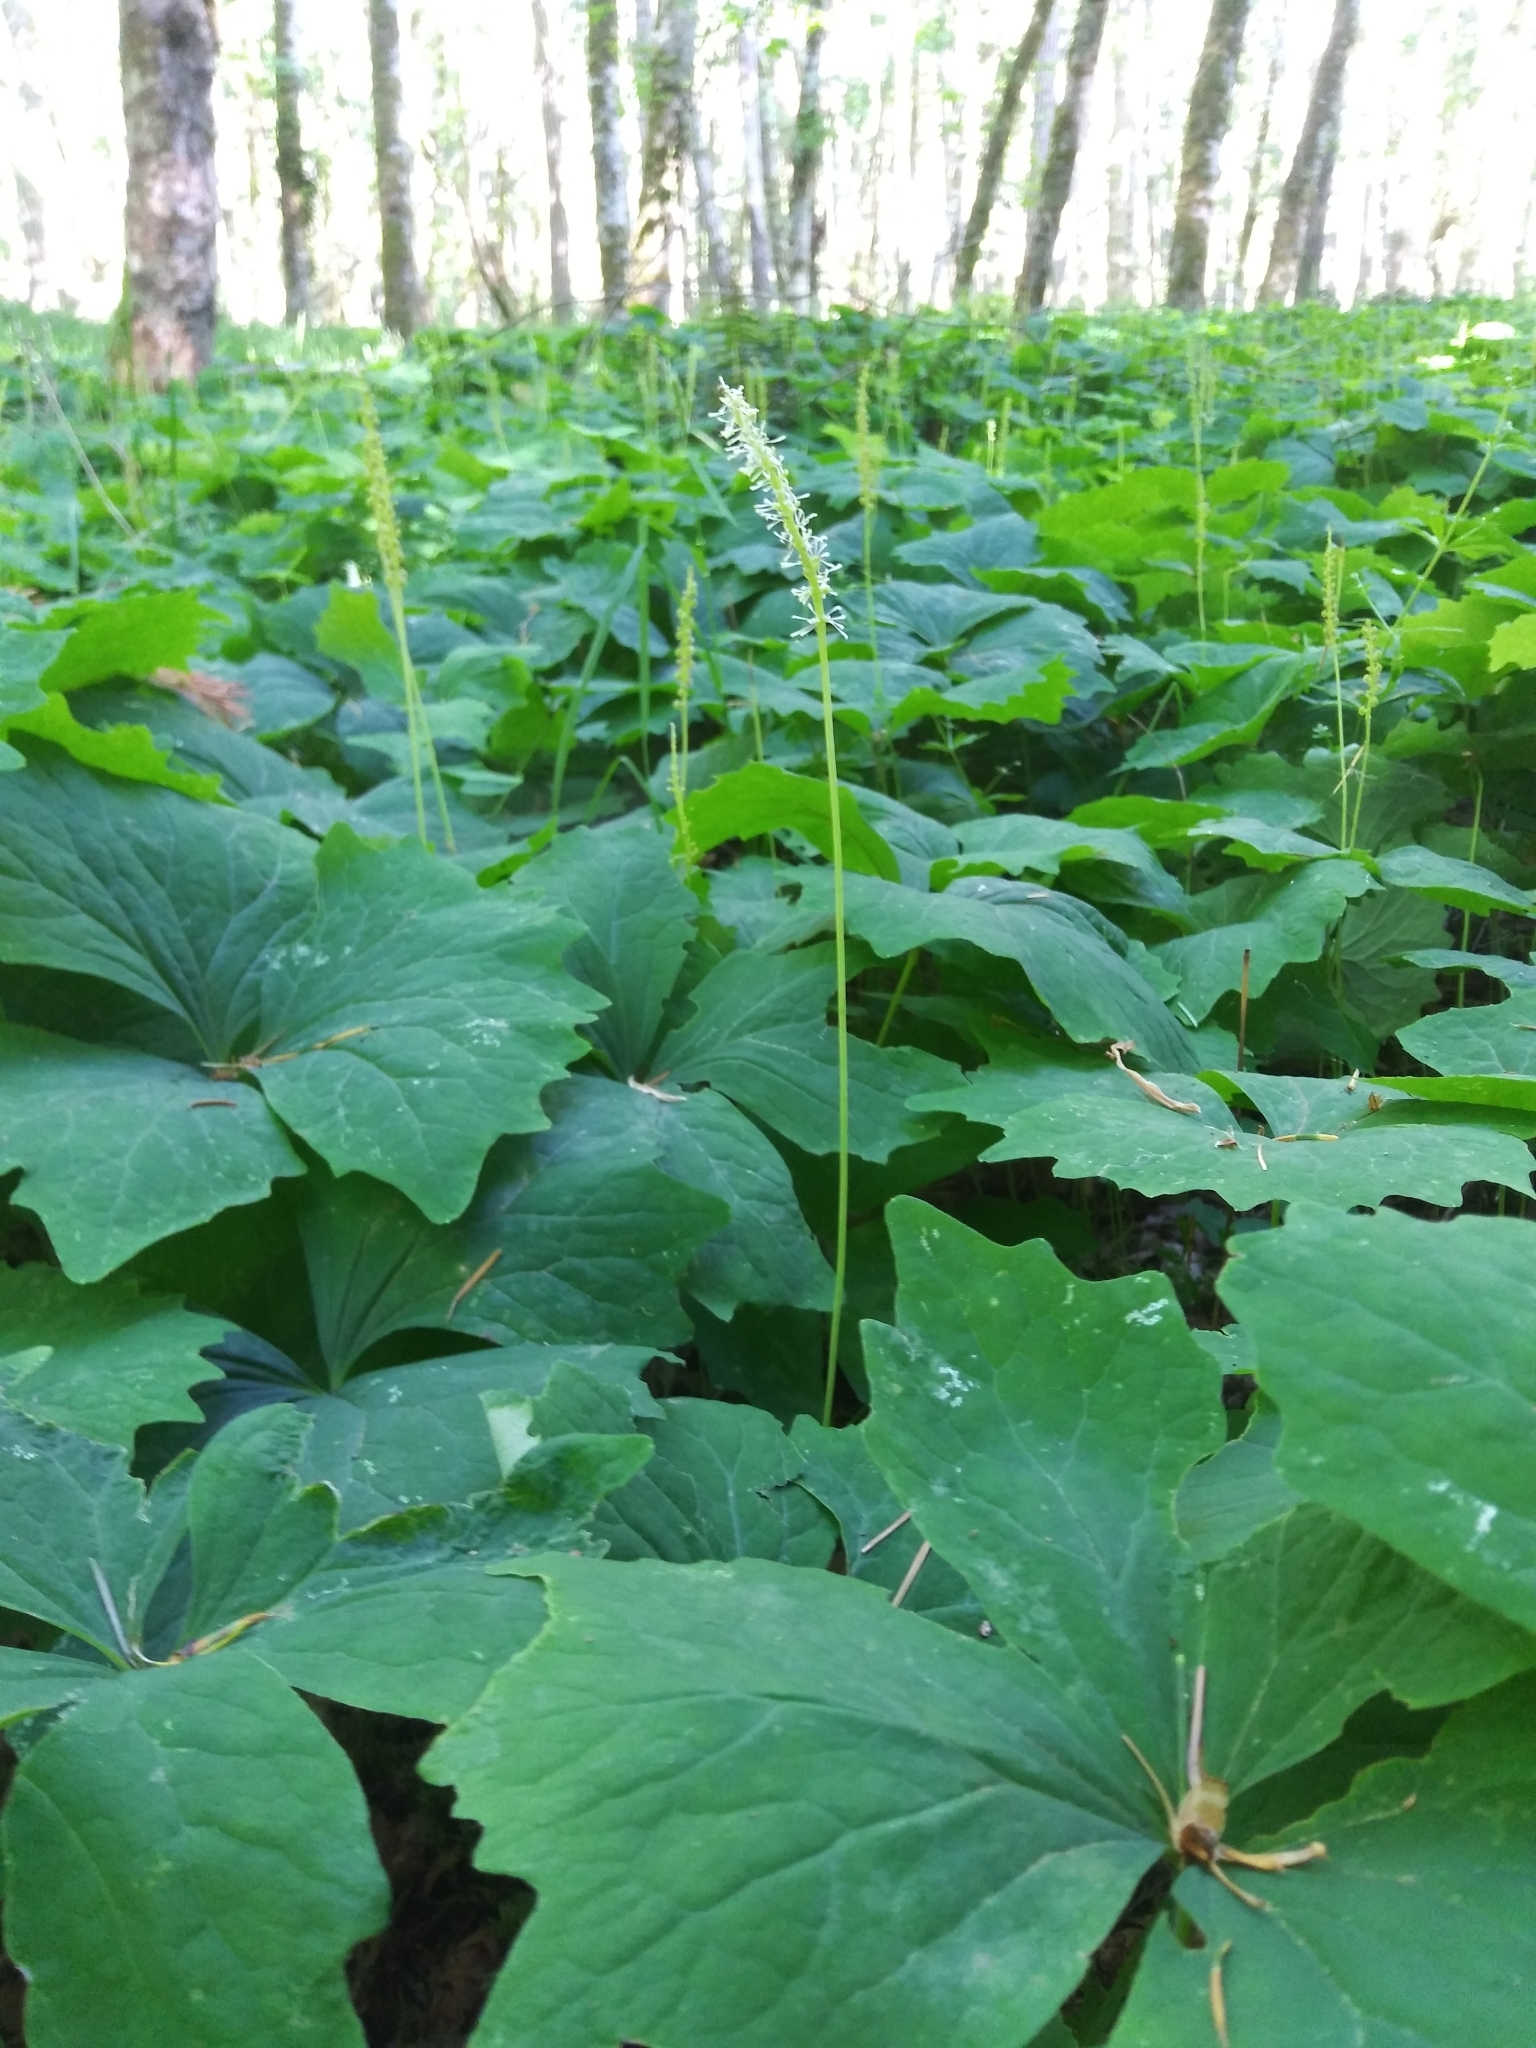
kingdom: Plantae
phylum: Tracheophyta
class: Magnoliopsida
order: Ranunculales
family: Berberidaceae
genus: Achlys
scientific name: Achlys triphylla
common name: Vanilla-leaf
